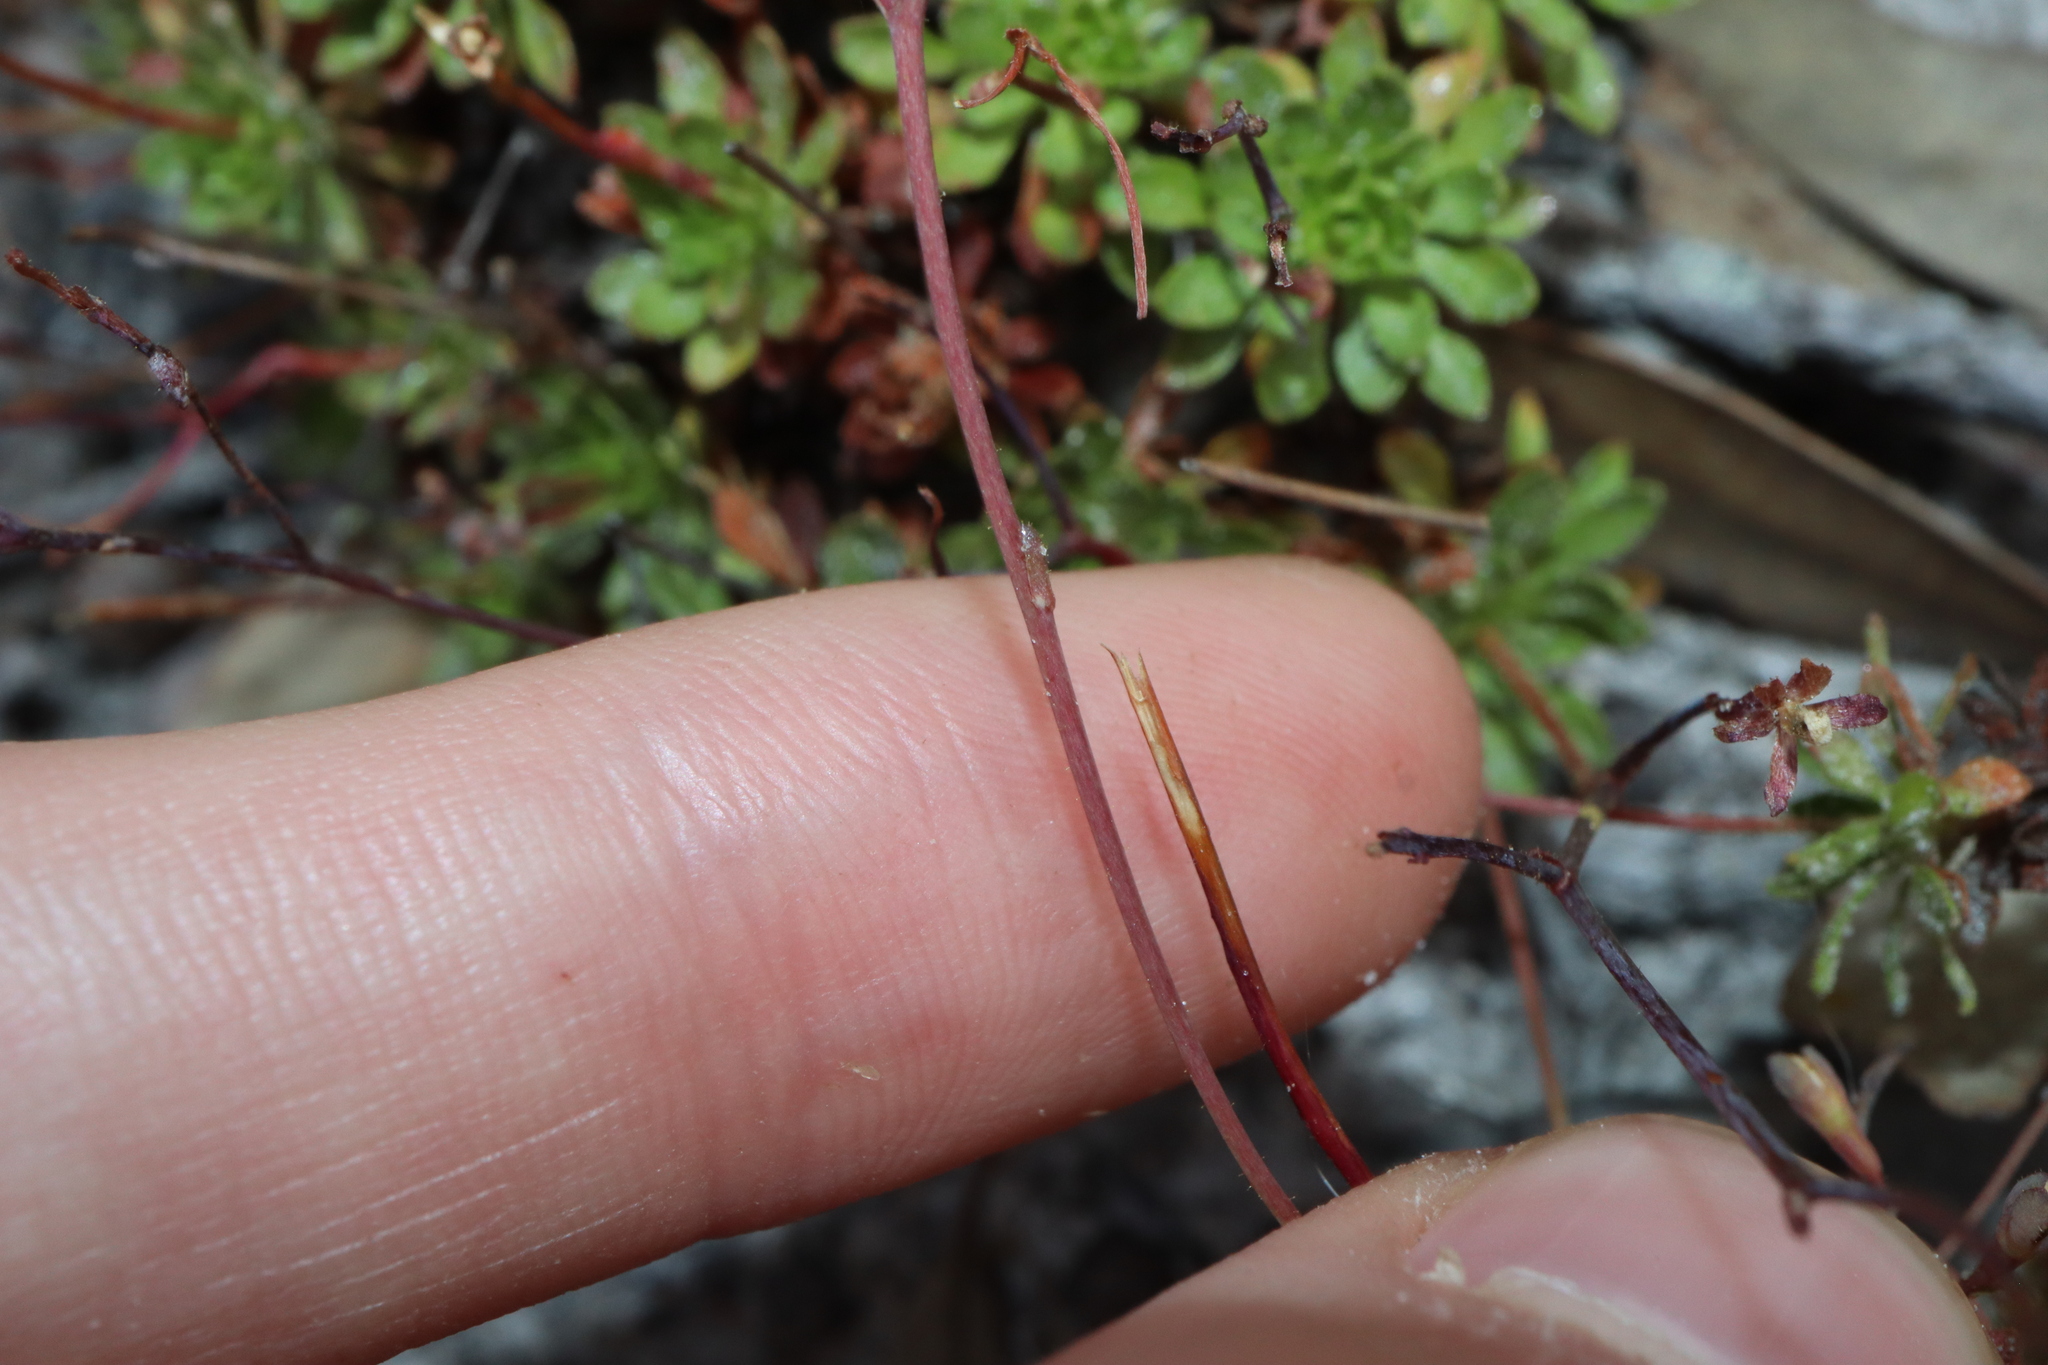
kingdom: Plantae
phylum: Tracheophyta
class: Magnoliopsida
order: Asterales
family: Stylidiaceae
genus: Stylidium
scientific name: Stylidium rupestre
